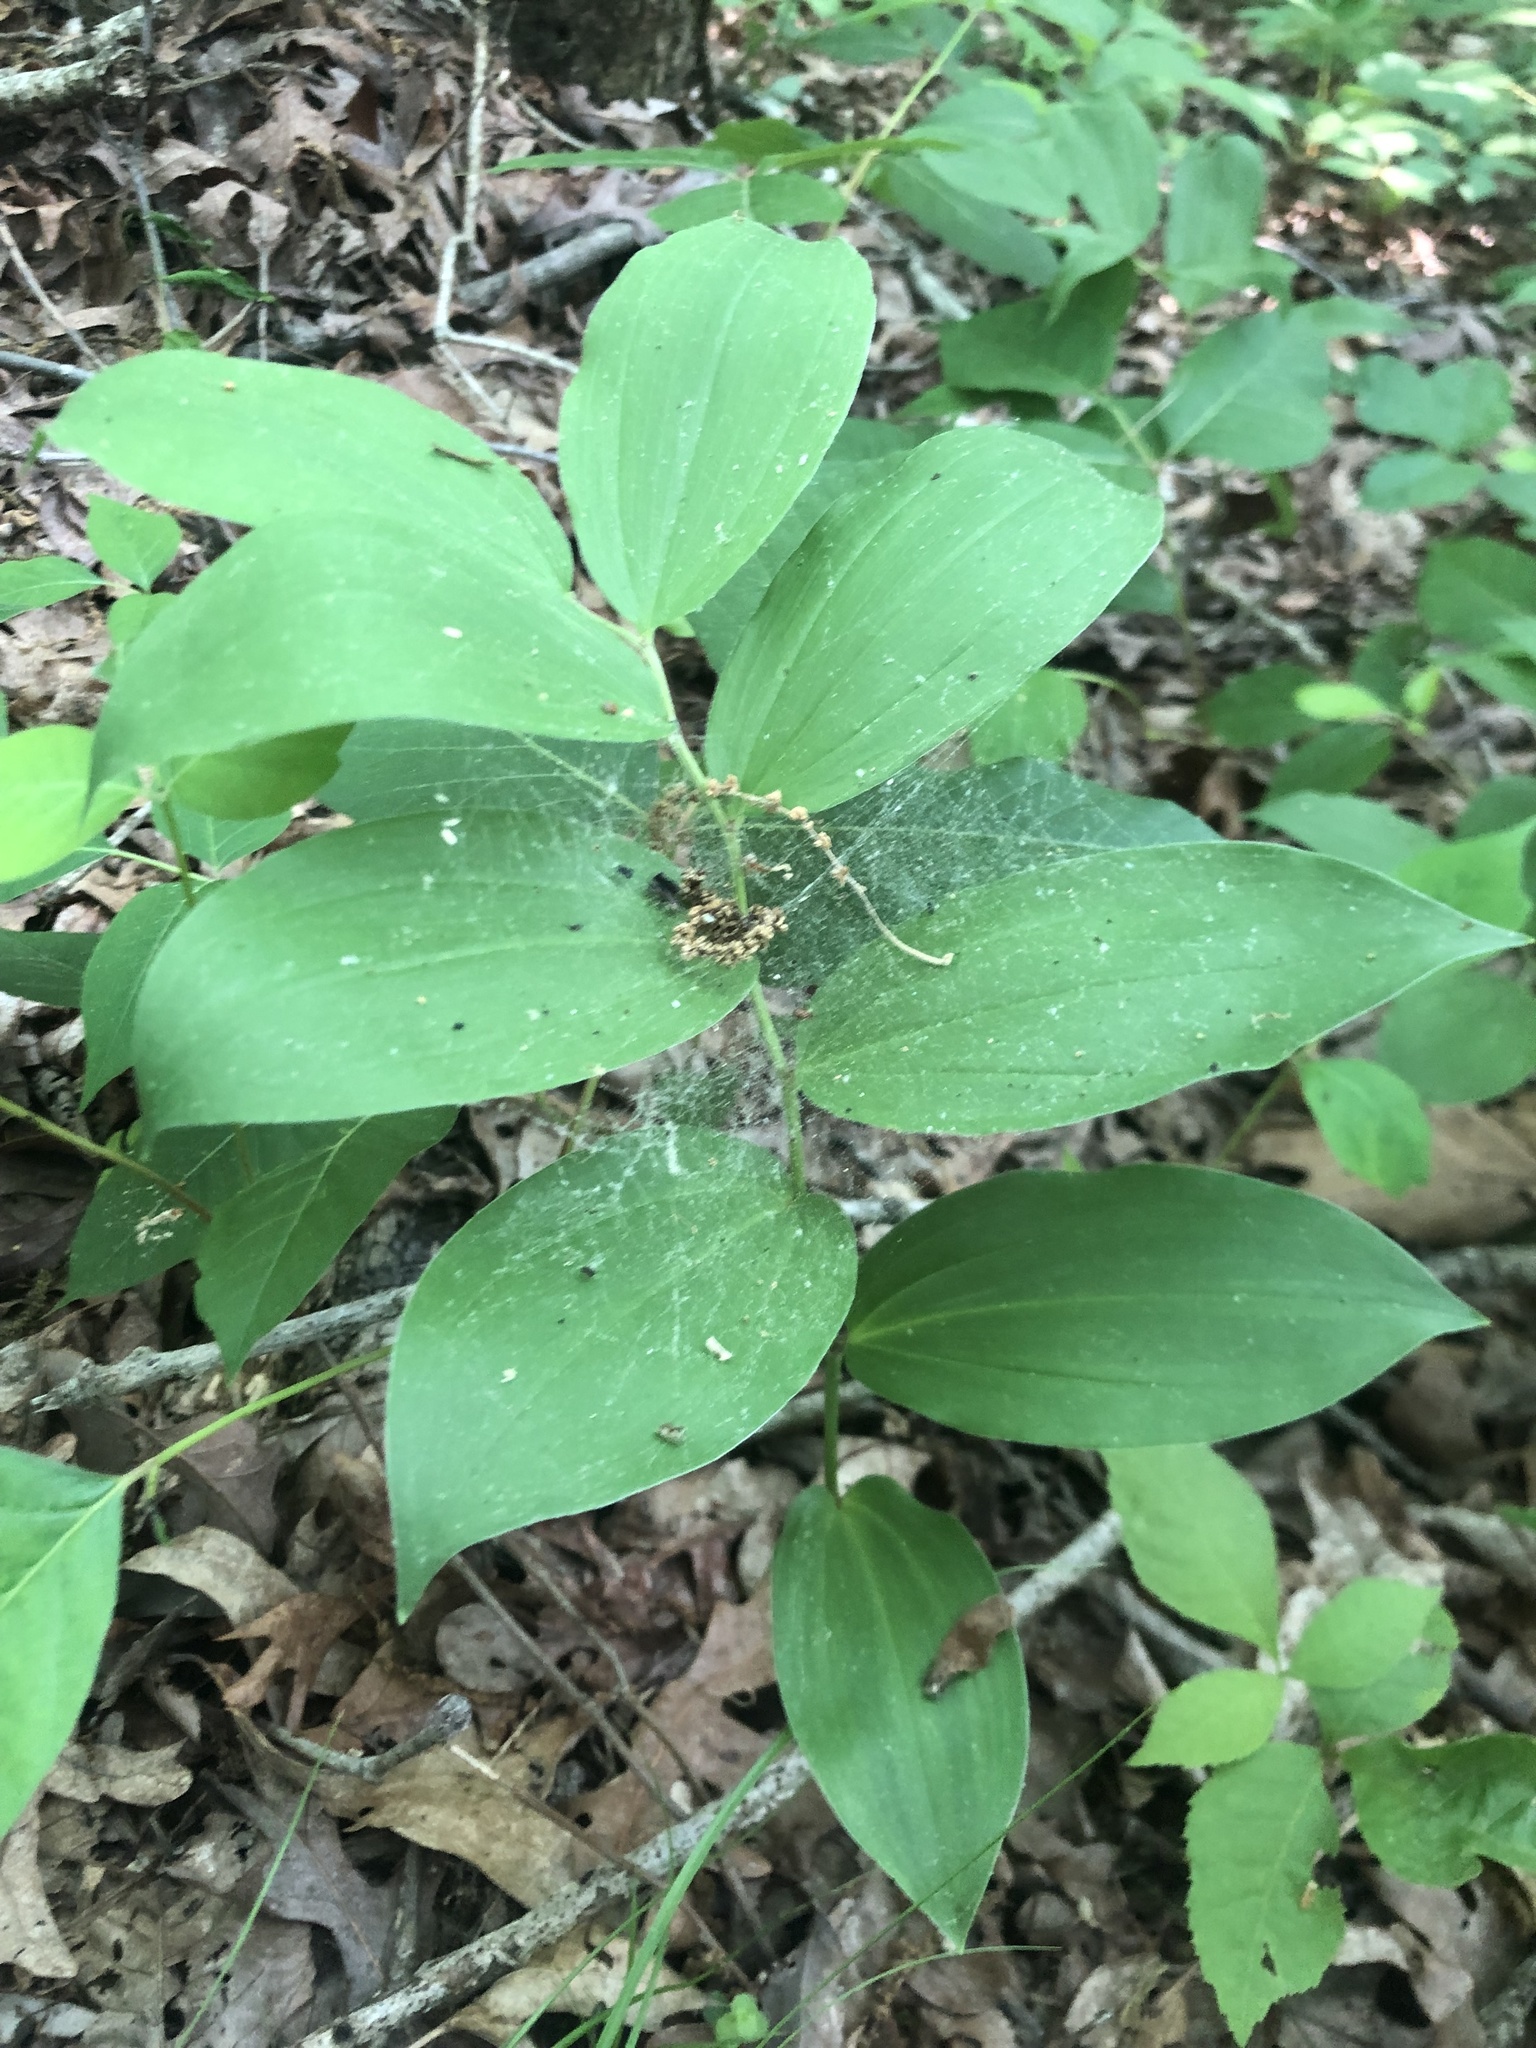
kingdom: Plantae
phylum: Tracheophyta
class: Liliopsida
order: Asparagales
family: Asparagaceae
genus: Maianthemum
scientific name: Maianthemum racemosum
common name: False spikenard
